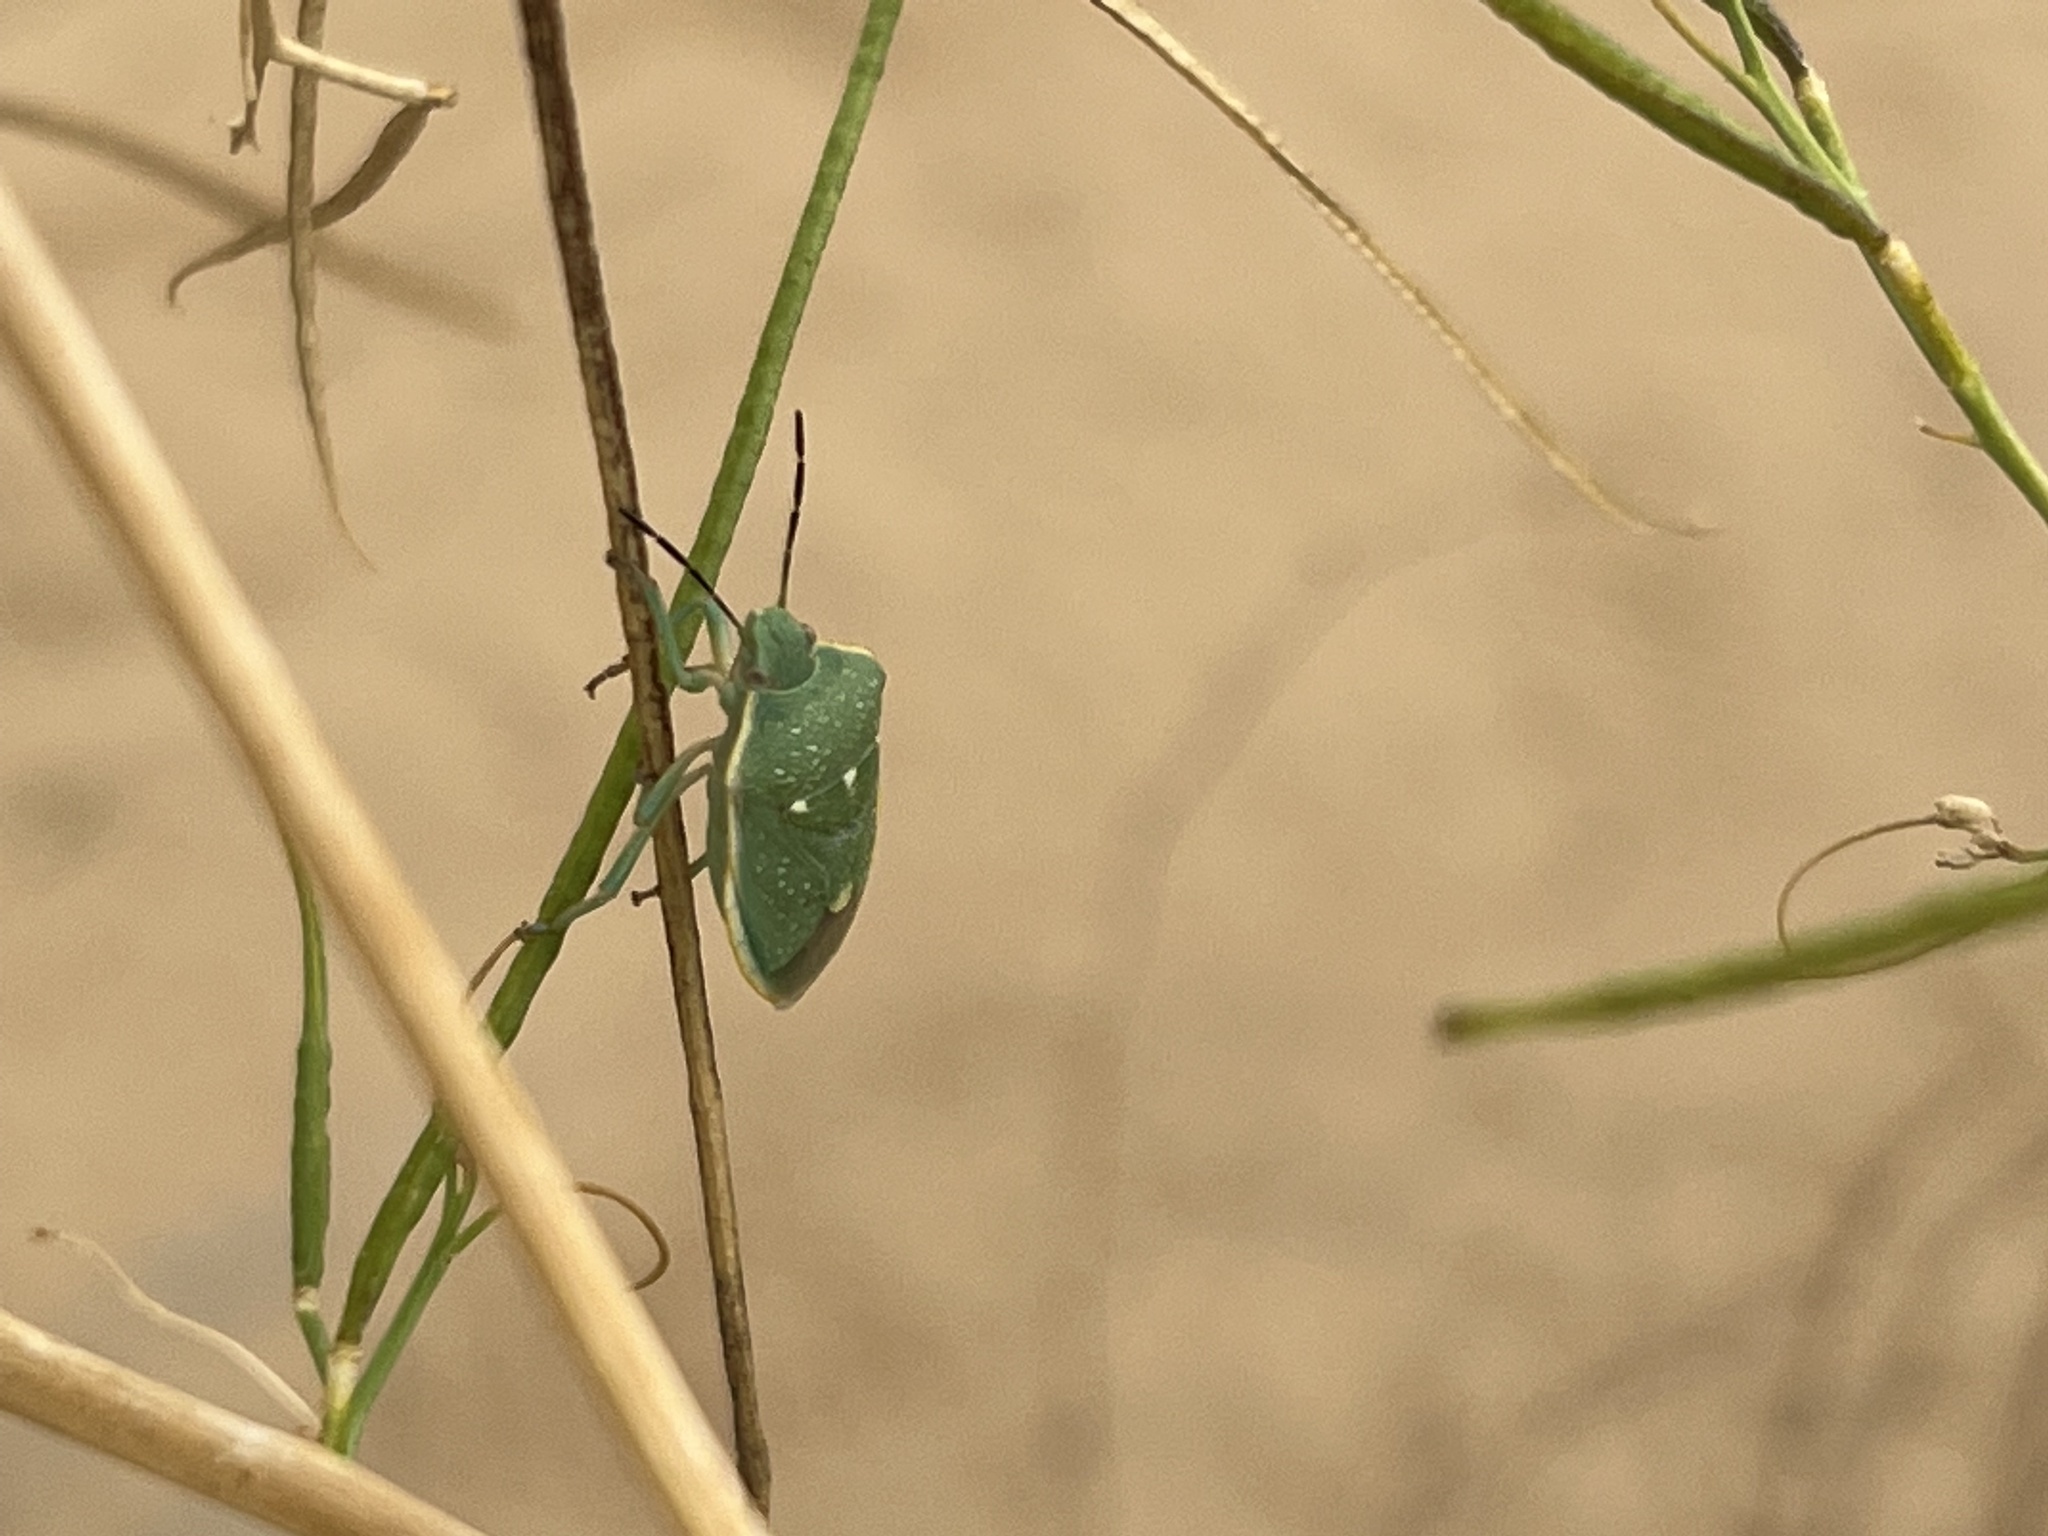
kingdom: Animalia
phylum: Arthropoda
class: Insecta
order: Hemiptera
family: Pentatomidae
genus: Chlorochroa
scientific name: Chlorochroa sayi
